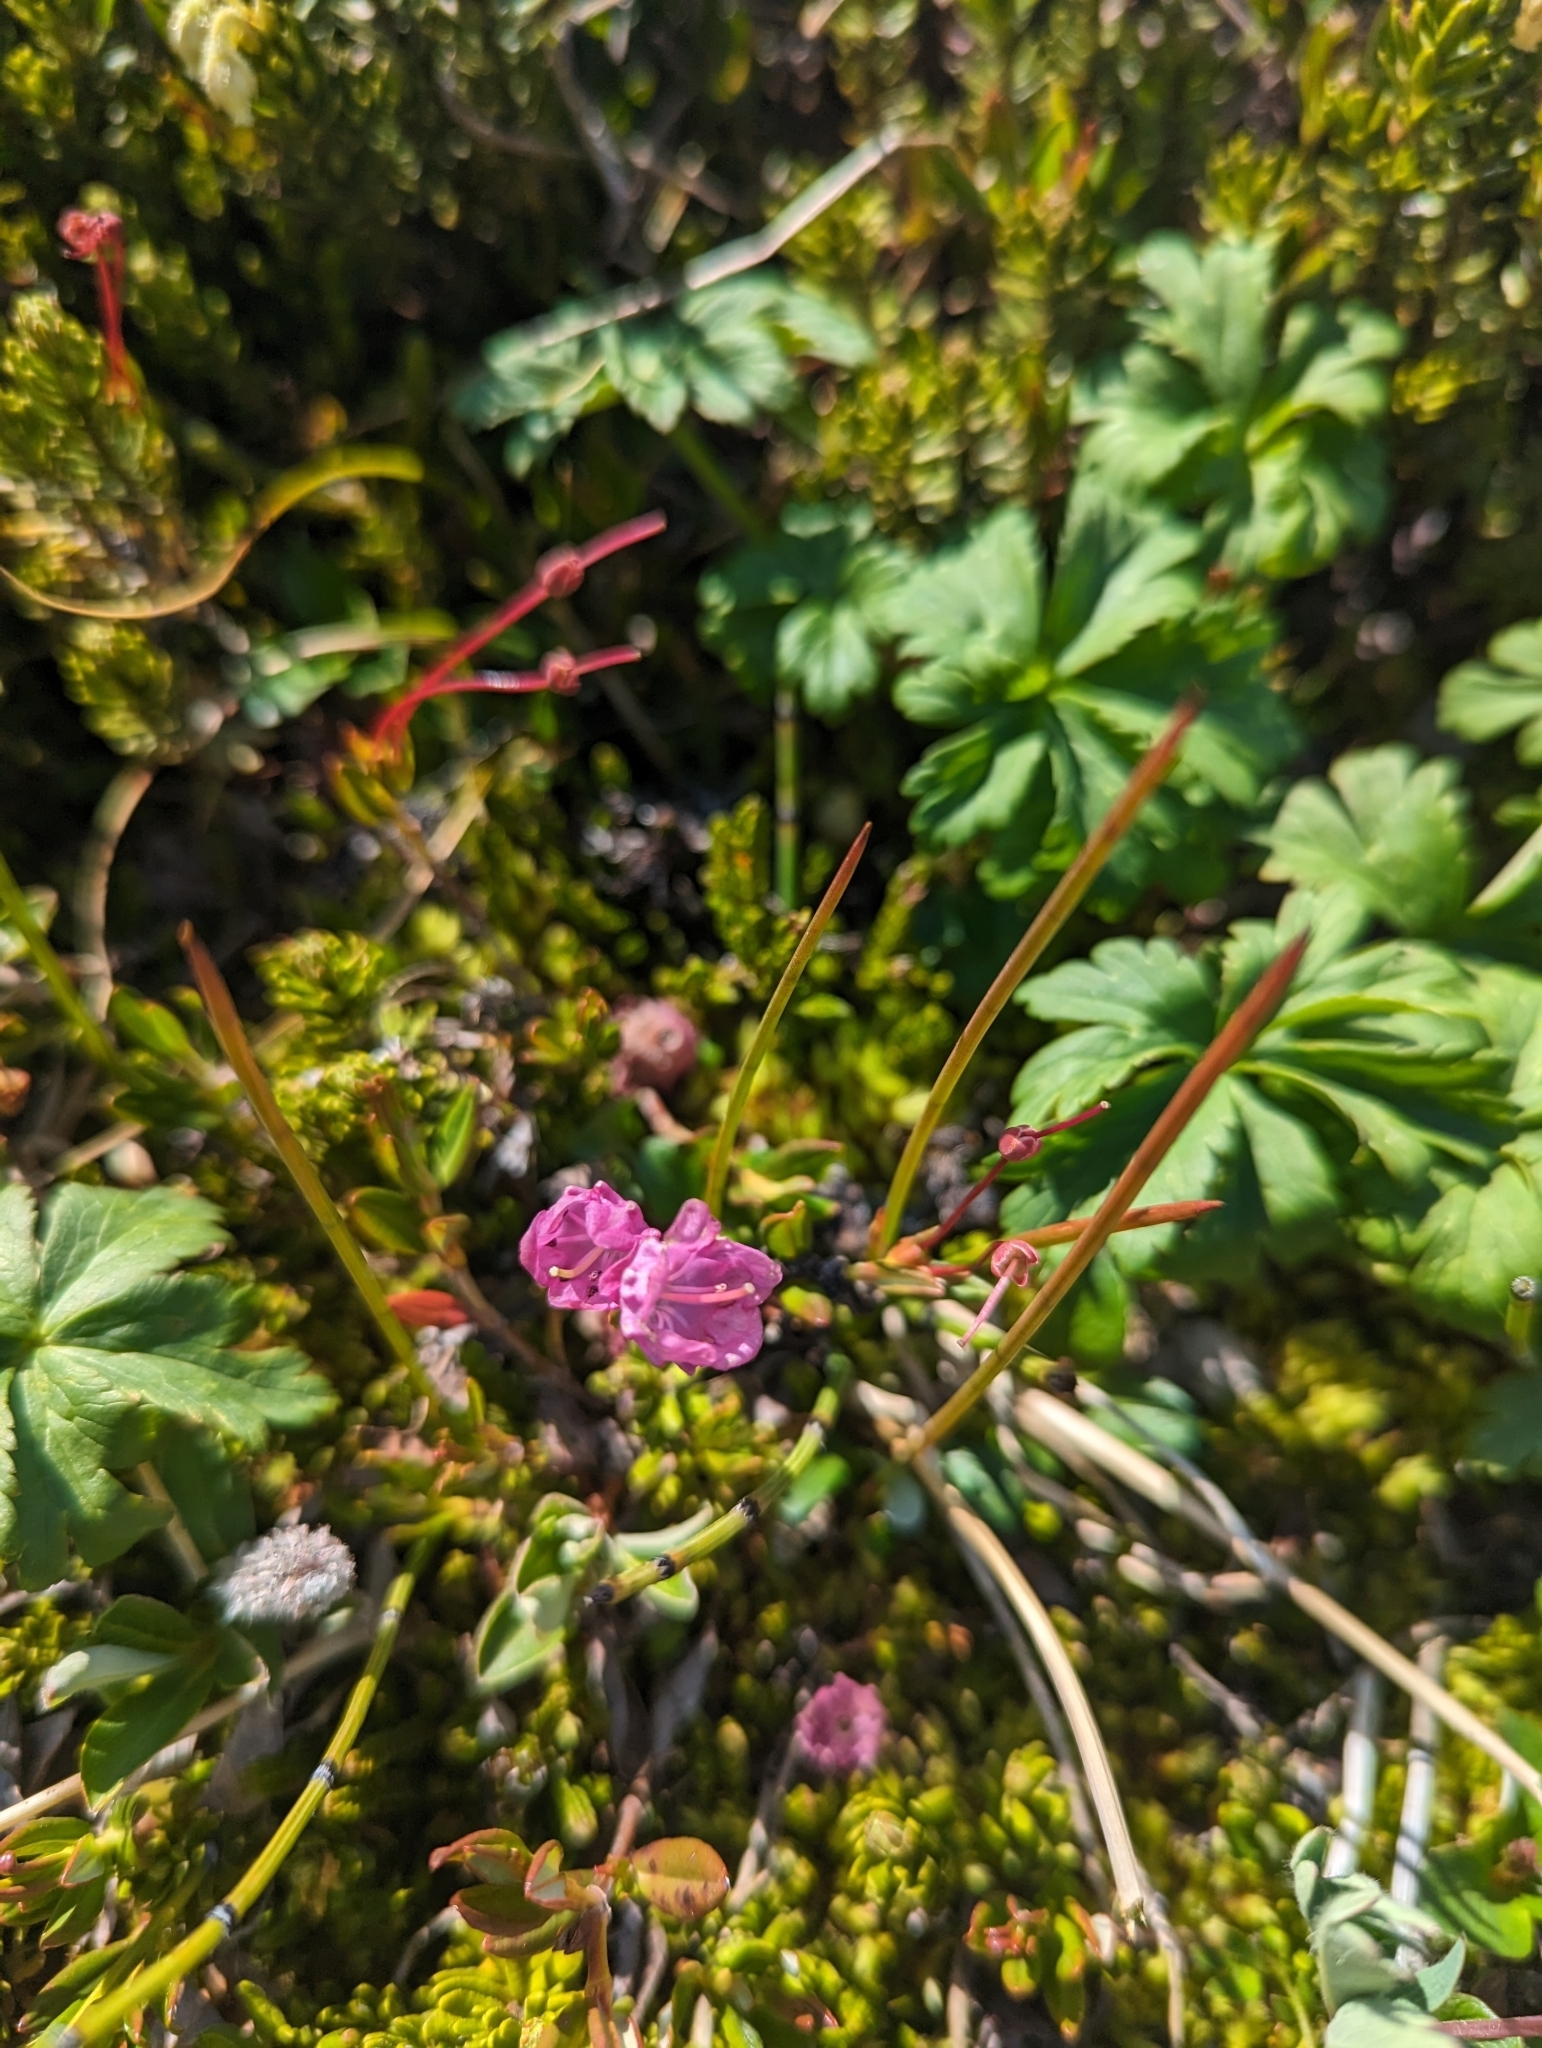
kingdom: Plantae
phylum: Tracheophyta
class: Magnoliopsida
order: Ericales
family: Ericaceae
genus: Kalmia
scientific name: Kalmia microphylla
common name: Alpine bog laurel
